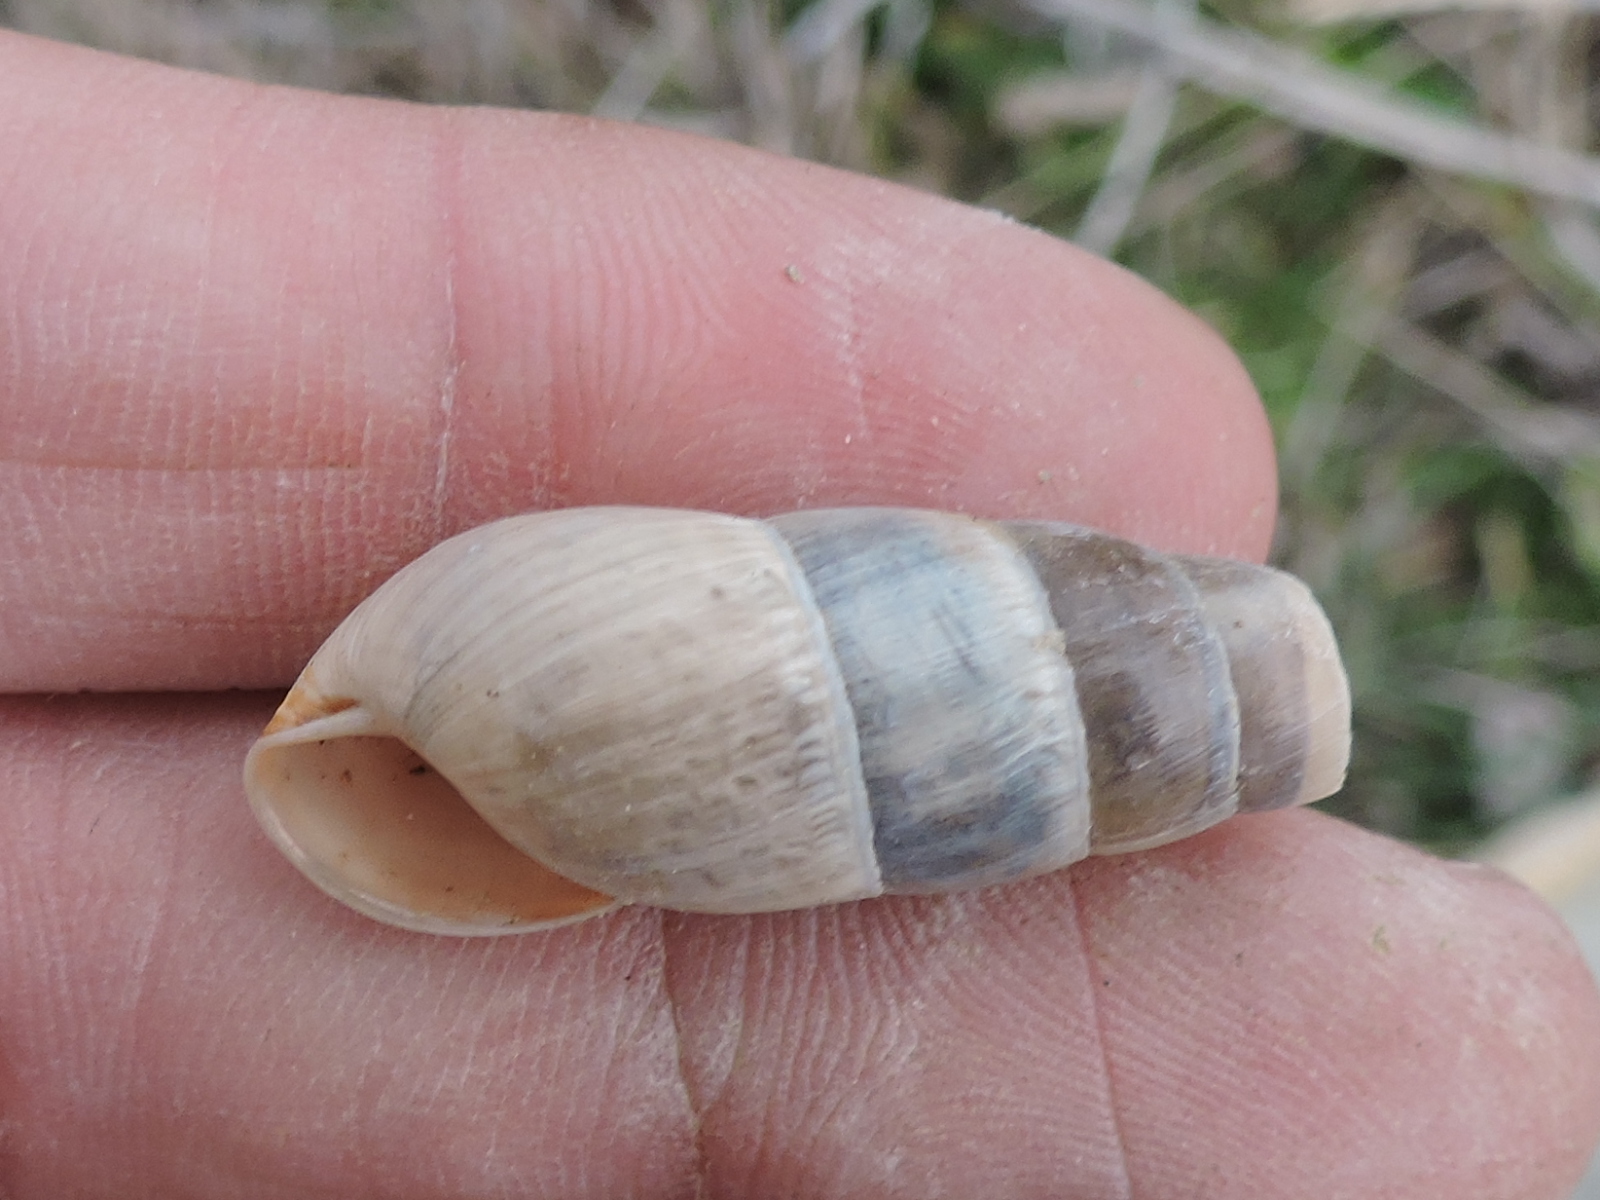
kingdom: Animalia
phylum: Mollusca
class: Gastropoda
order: Stylommatophora
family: Achatinidae
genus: Rumina
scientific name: Rumina decollata
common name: Decollate snail
